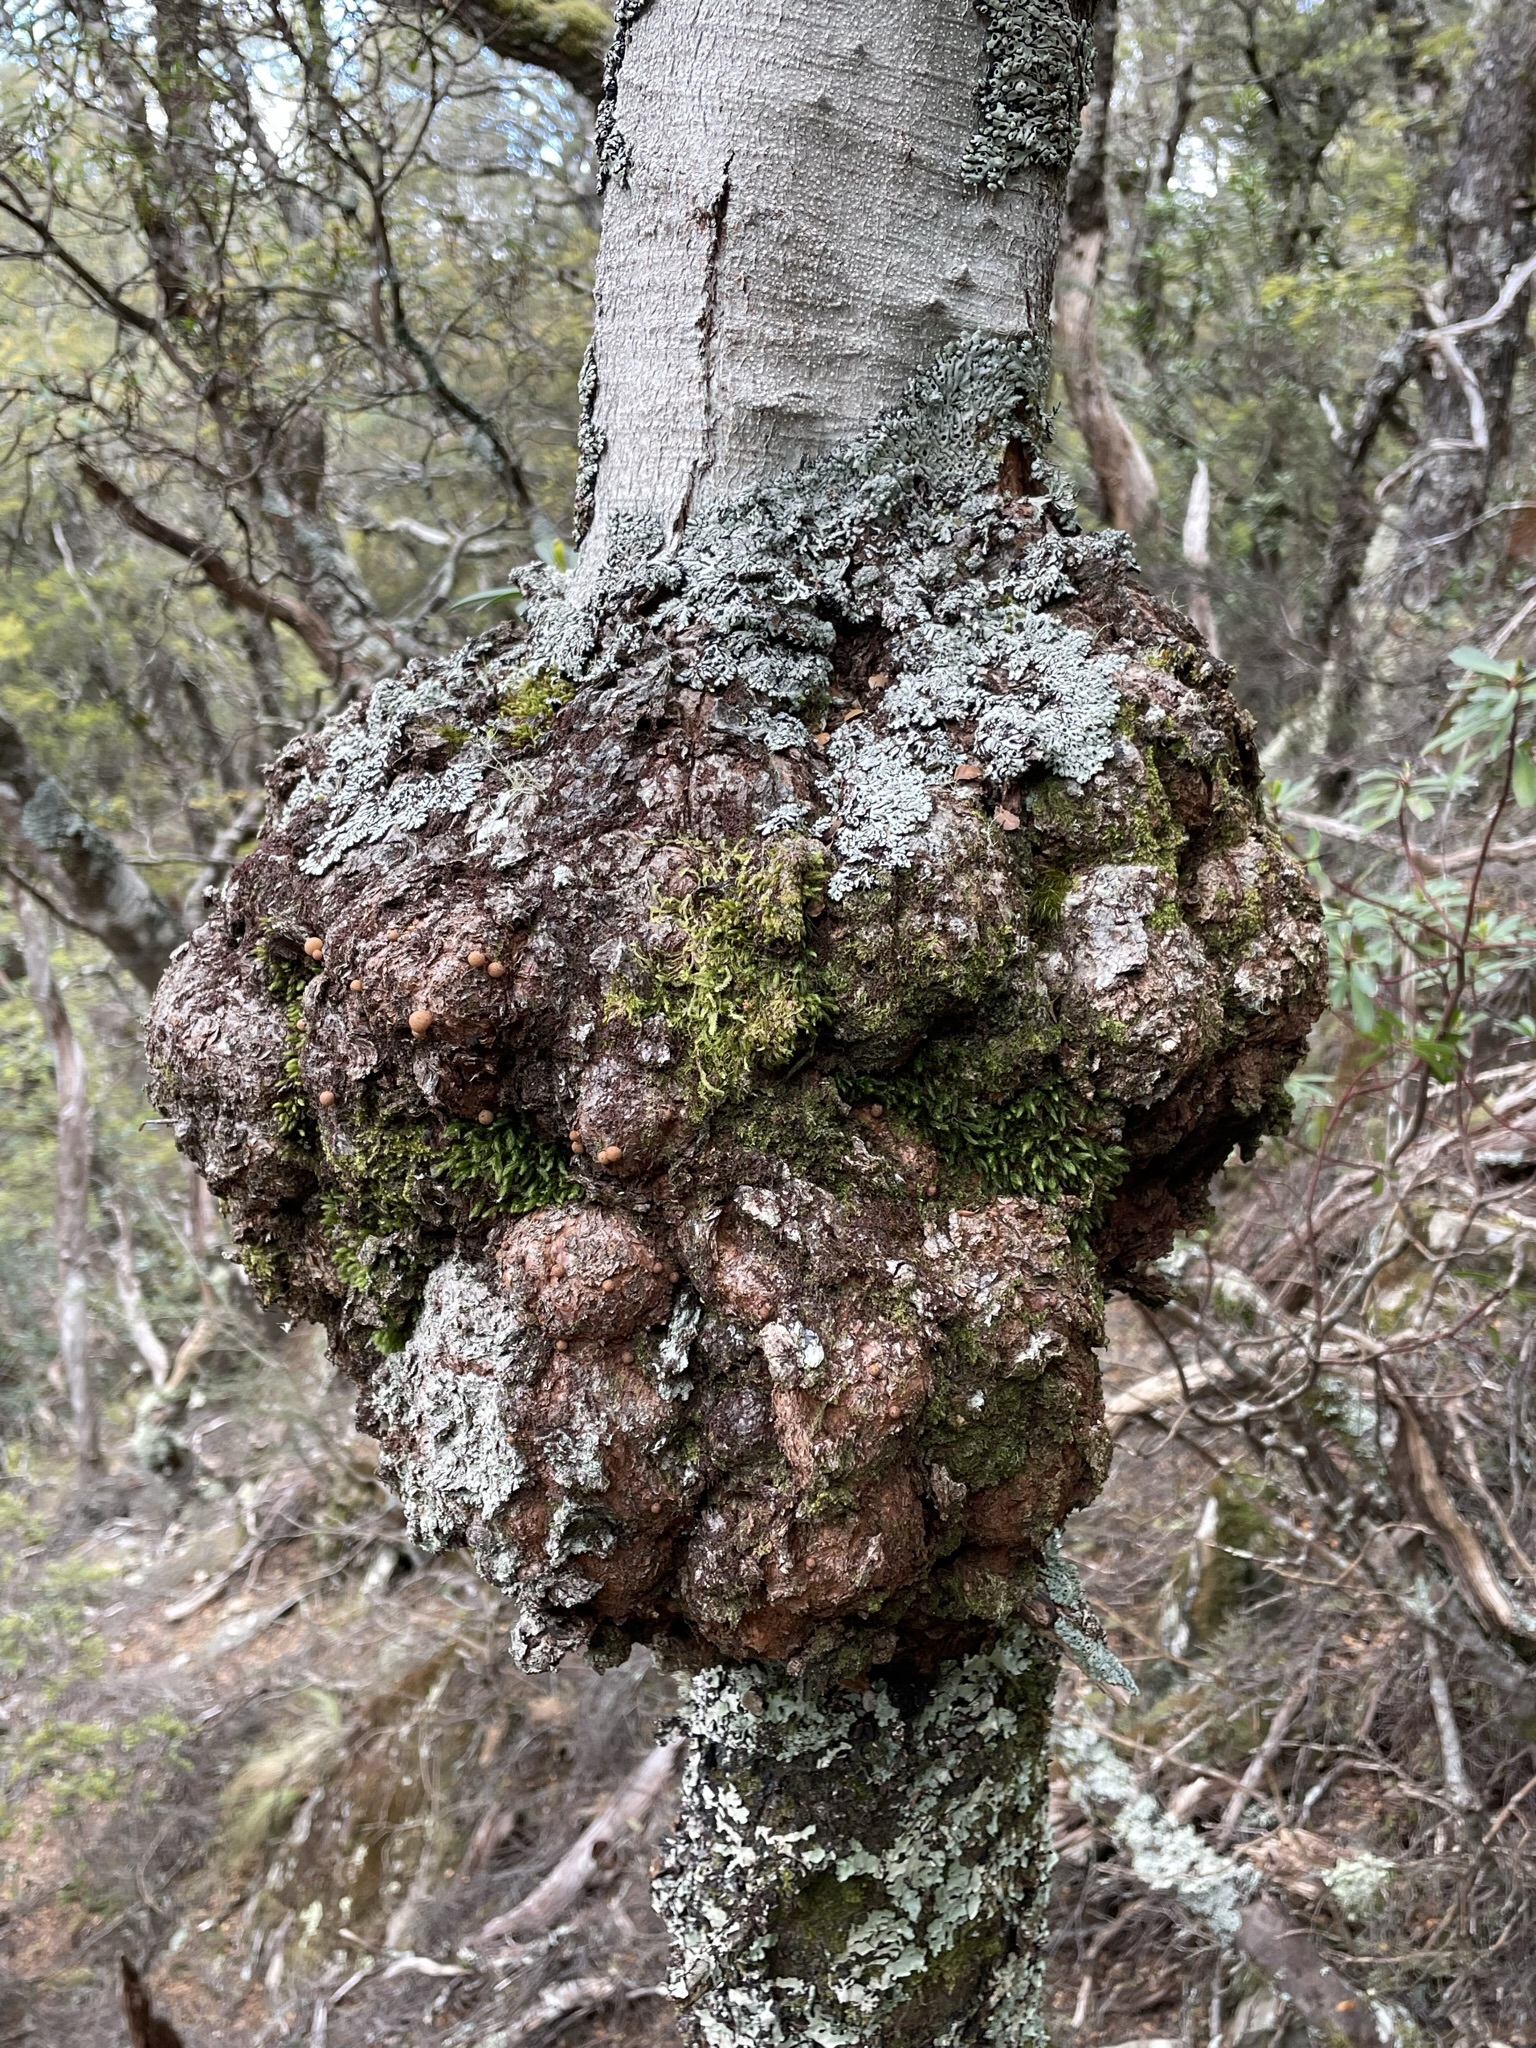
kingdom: Fungi
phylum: Ascomycota
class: Leotiomycetes
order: Cyttariales
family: Cyttariaceae
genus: Cyttaria
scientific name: Cyttaria gunnii
